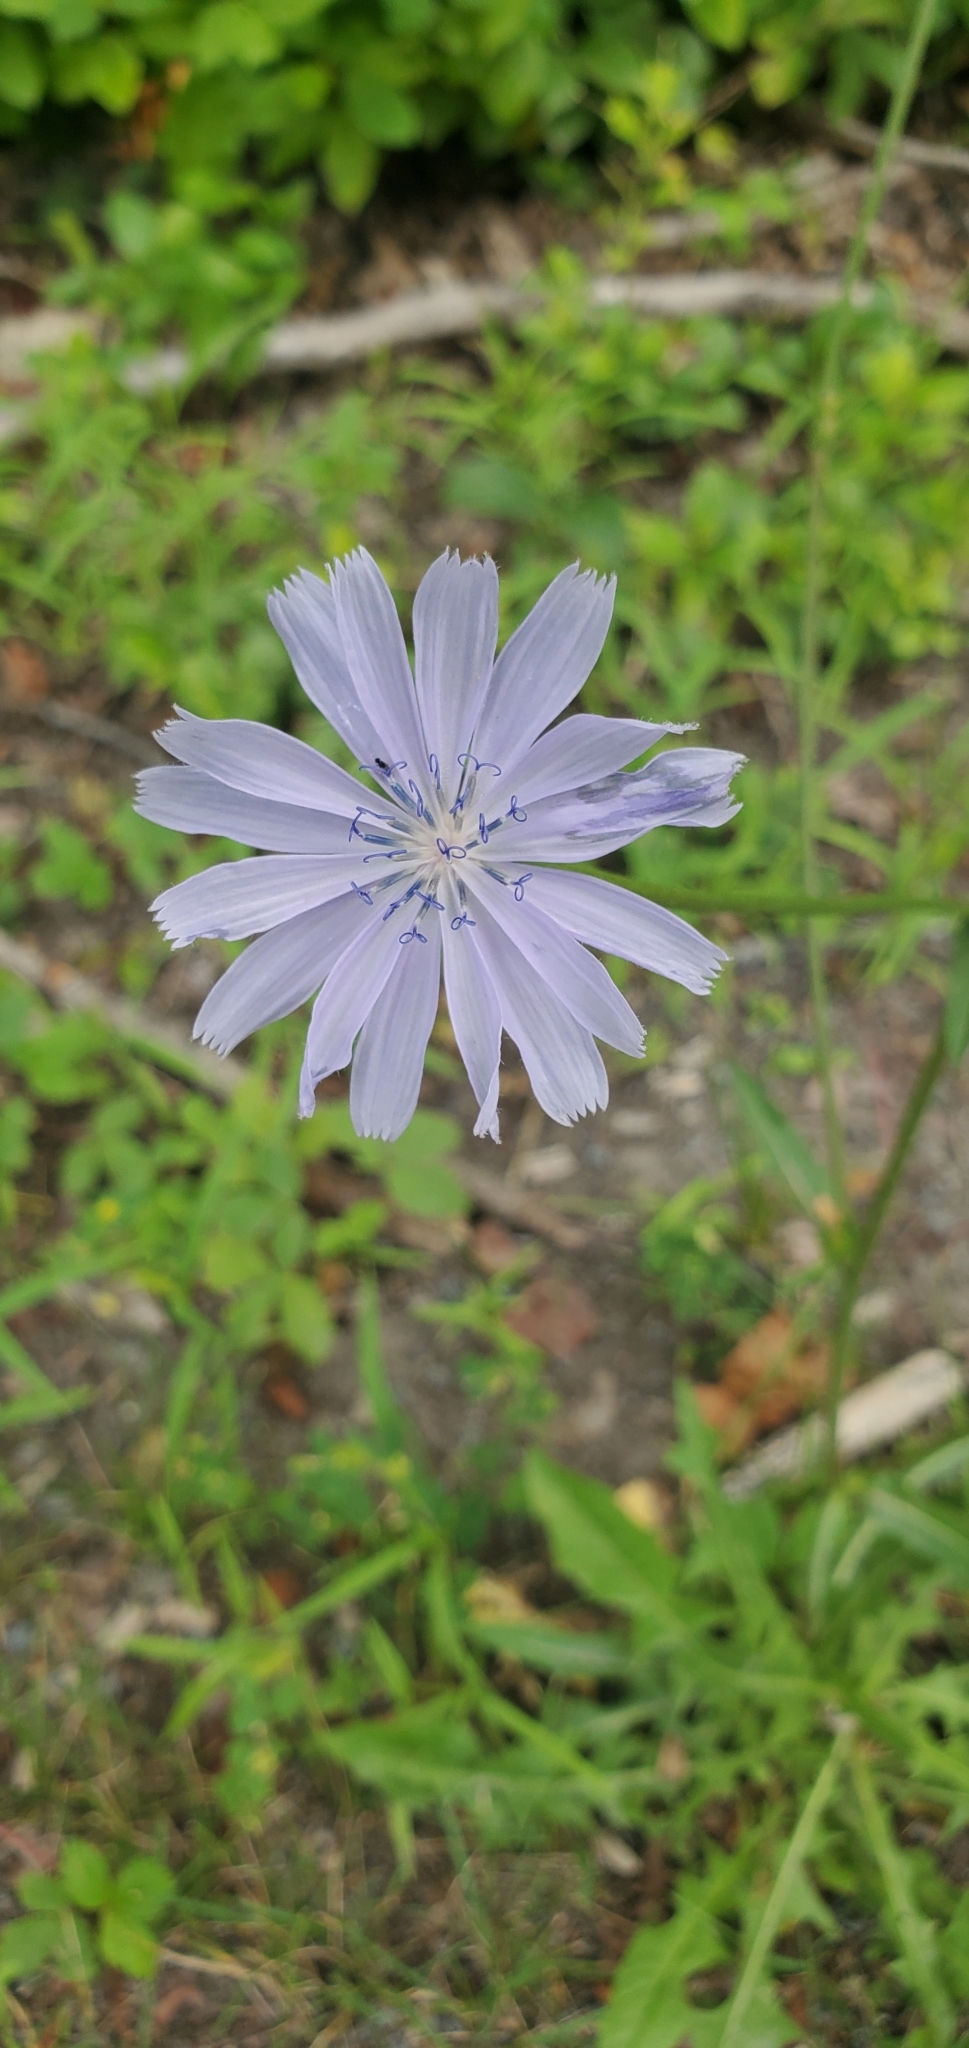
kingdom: Plantae
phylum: Tracheophyta
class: Magnoliopsida
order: Asterales
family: Asteraceae
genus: Cichorium
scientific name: Cichorium intybus
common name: Chicory
